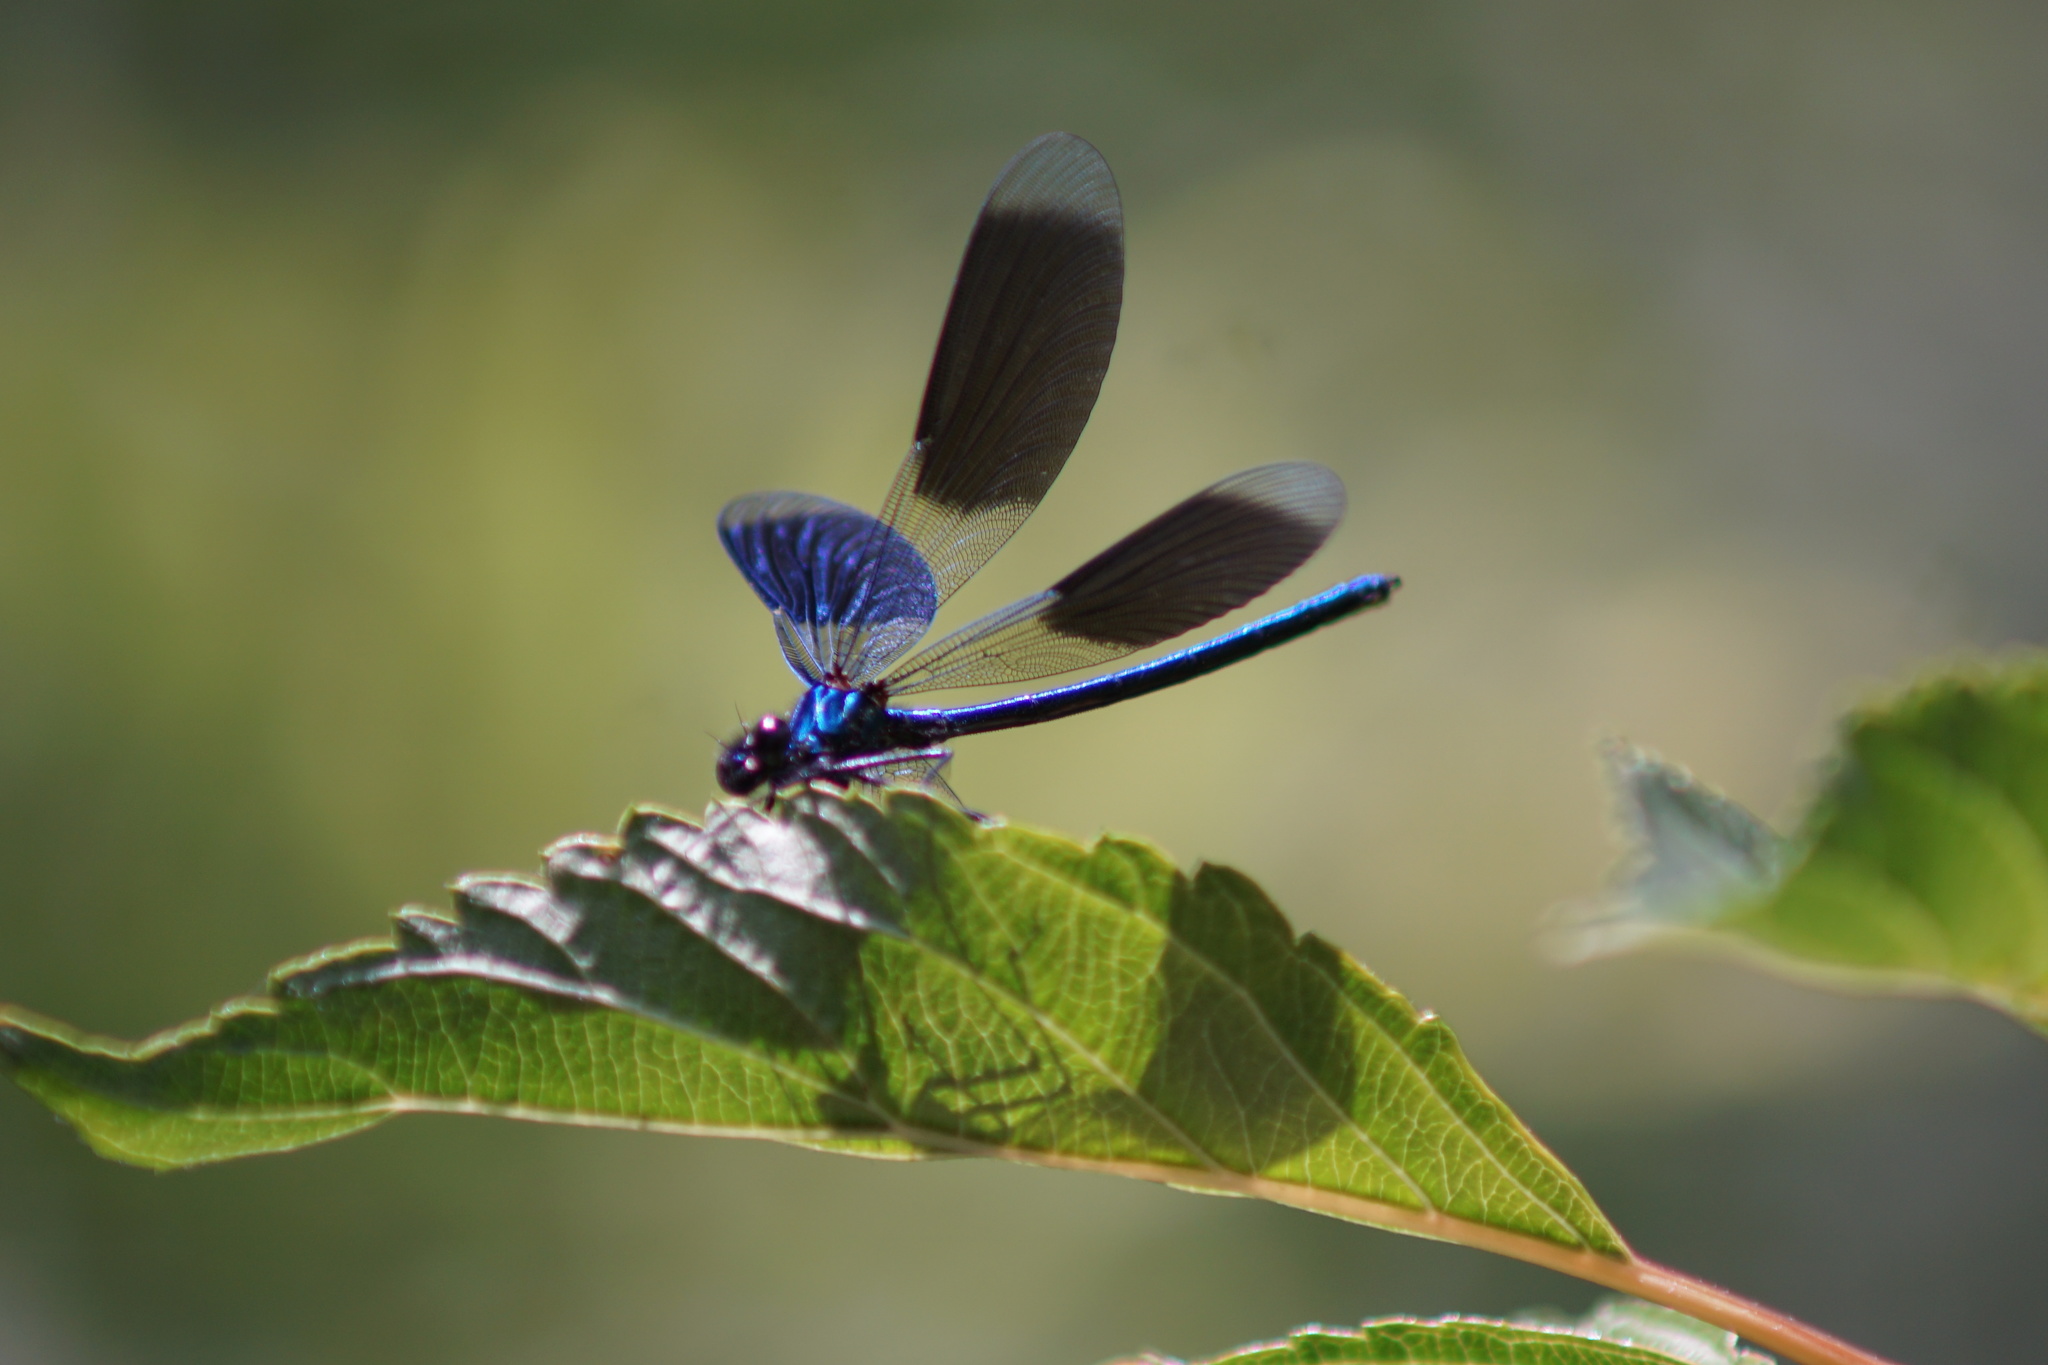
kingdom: Animalia
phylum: Arthropoda
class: Insecta
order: Odonata
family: Calopterygidae
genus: Calopteryx
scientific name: Calopteryx splendens
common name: Banded demoiselle
